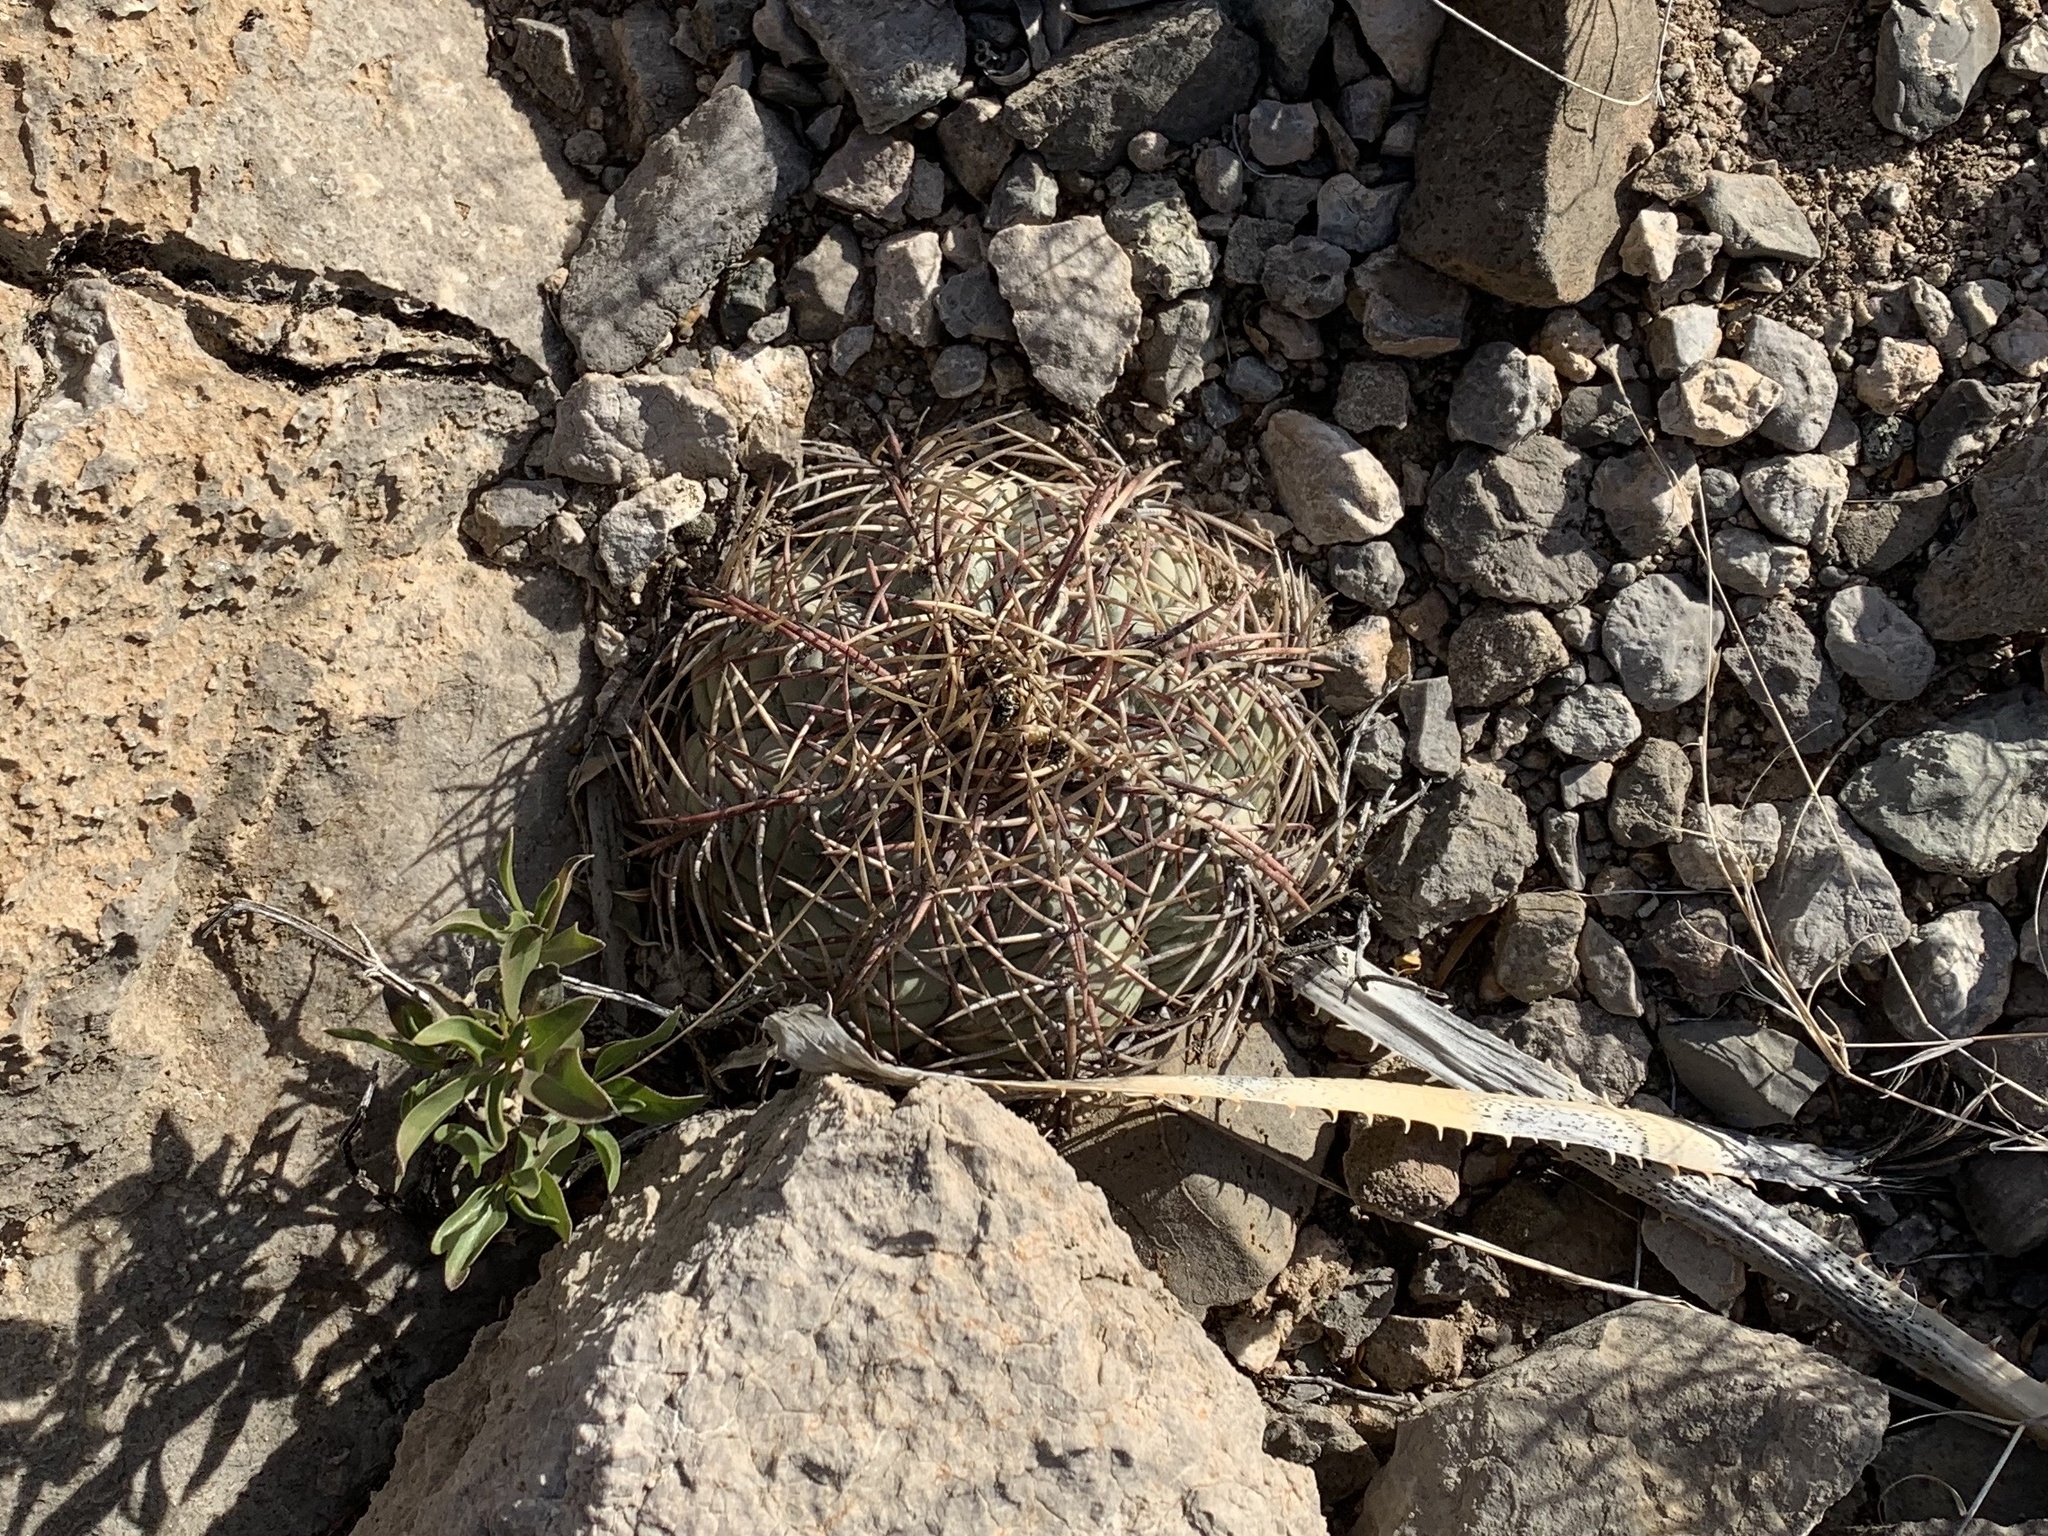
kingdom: Plantae
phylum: Tracheophyta
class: Magnoliopsida
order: Caryophyllales
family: Cactaceae
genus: Echinocactus
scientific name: Echinocactus horizonthalonius
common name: Devilshead
